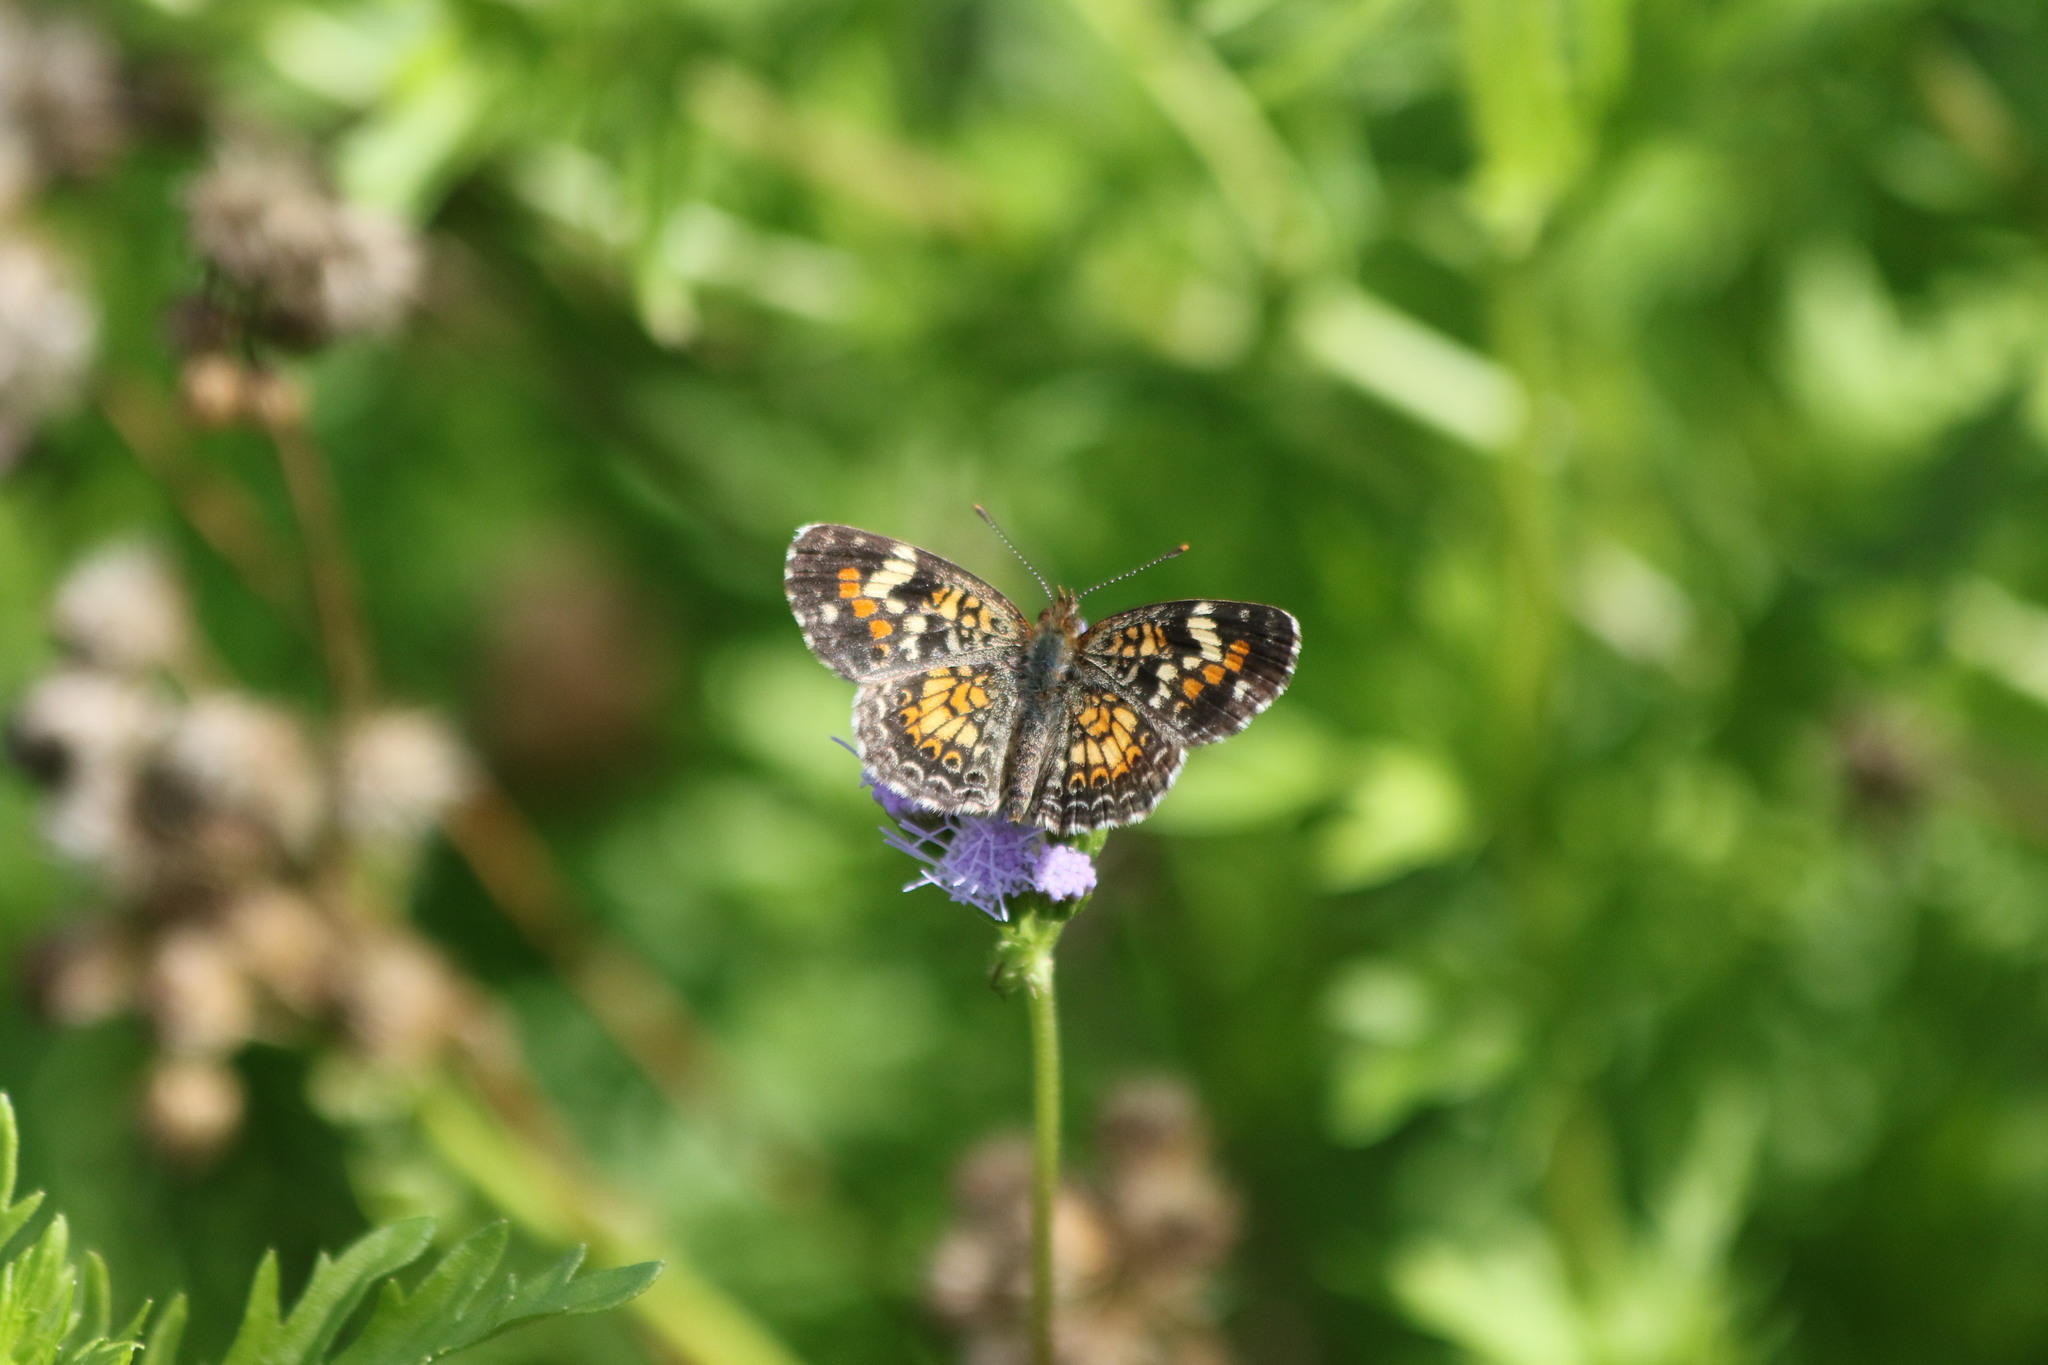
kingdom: Animalia
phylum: Arthropoda
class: Insecta
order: Lepidoptera
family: Nymphalidae
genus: Phyciodes
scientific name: Phyciodes phaon
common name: Phaon crescent
